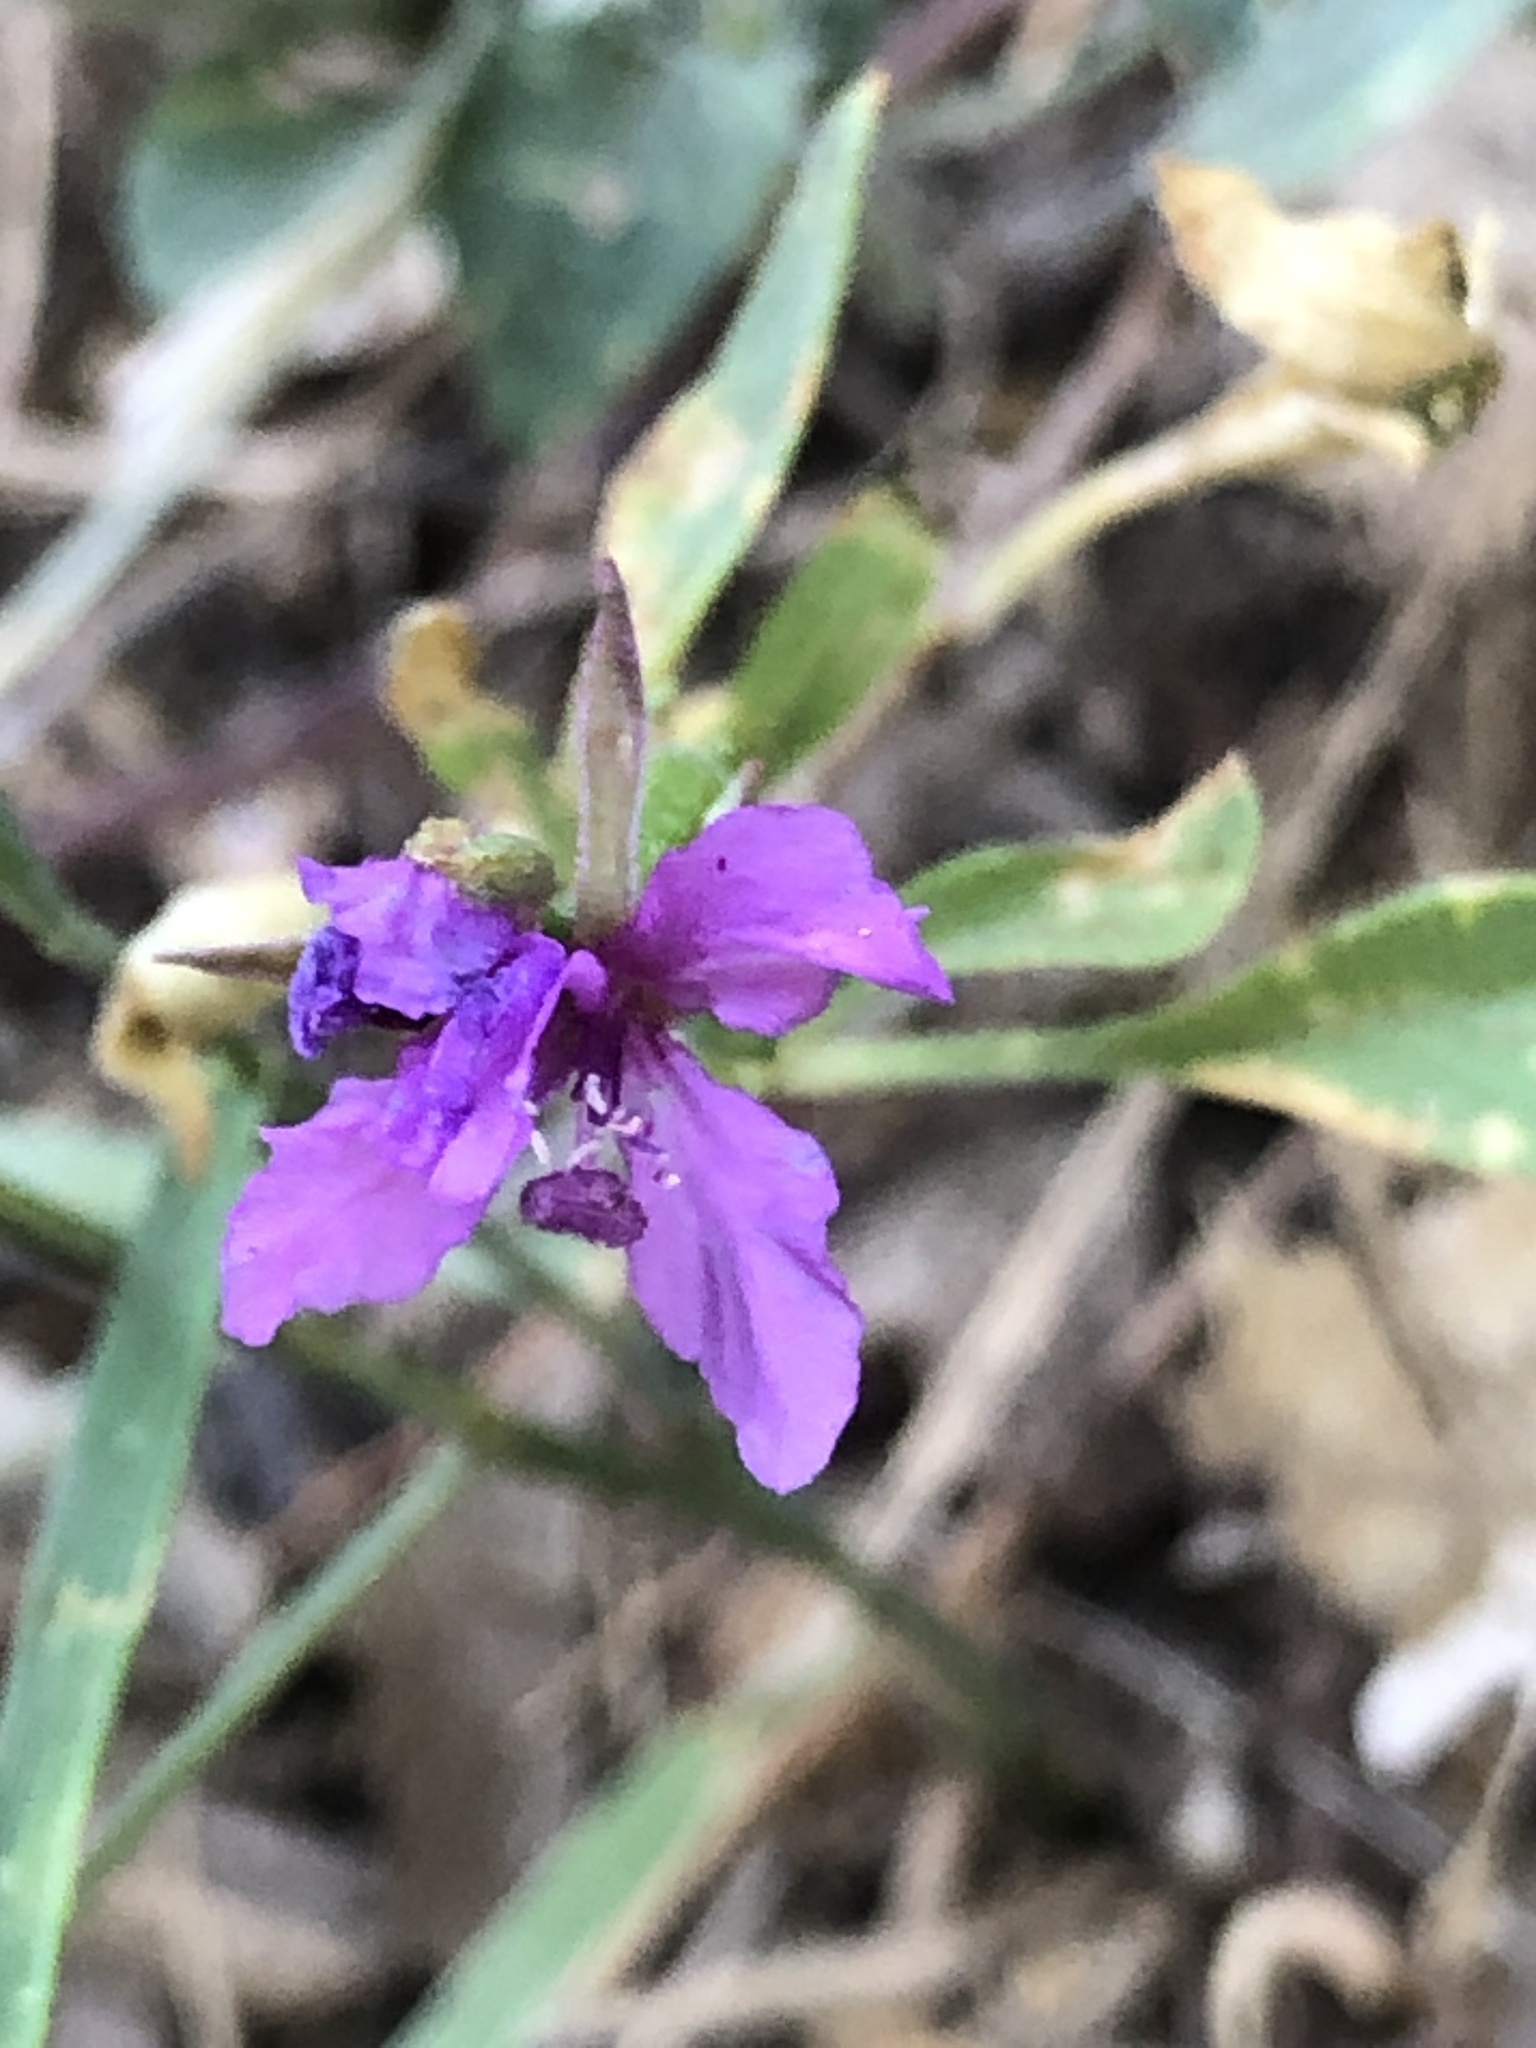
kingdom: Plantae
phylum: Tracheophyta
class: Magnoliopsida
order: Myrtales
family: Onagraceae
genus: Clarkia
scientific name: Clarkia rhomboidea
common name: Broadleaf clarkia
